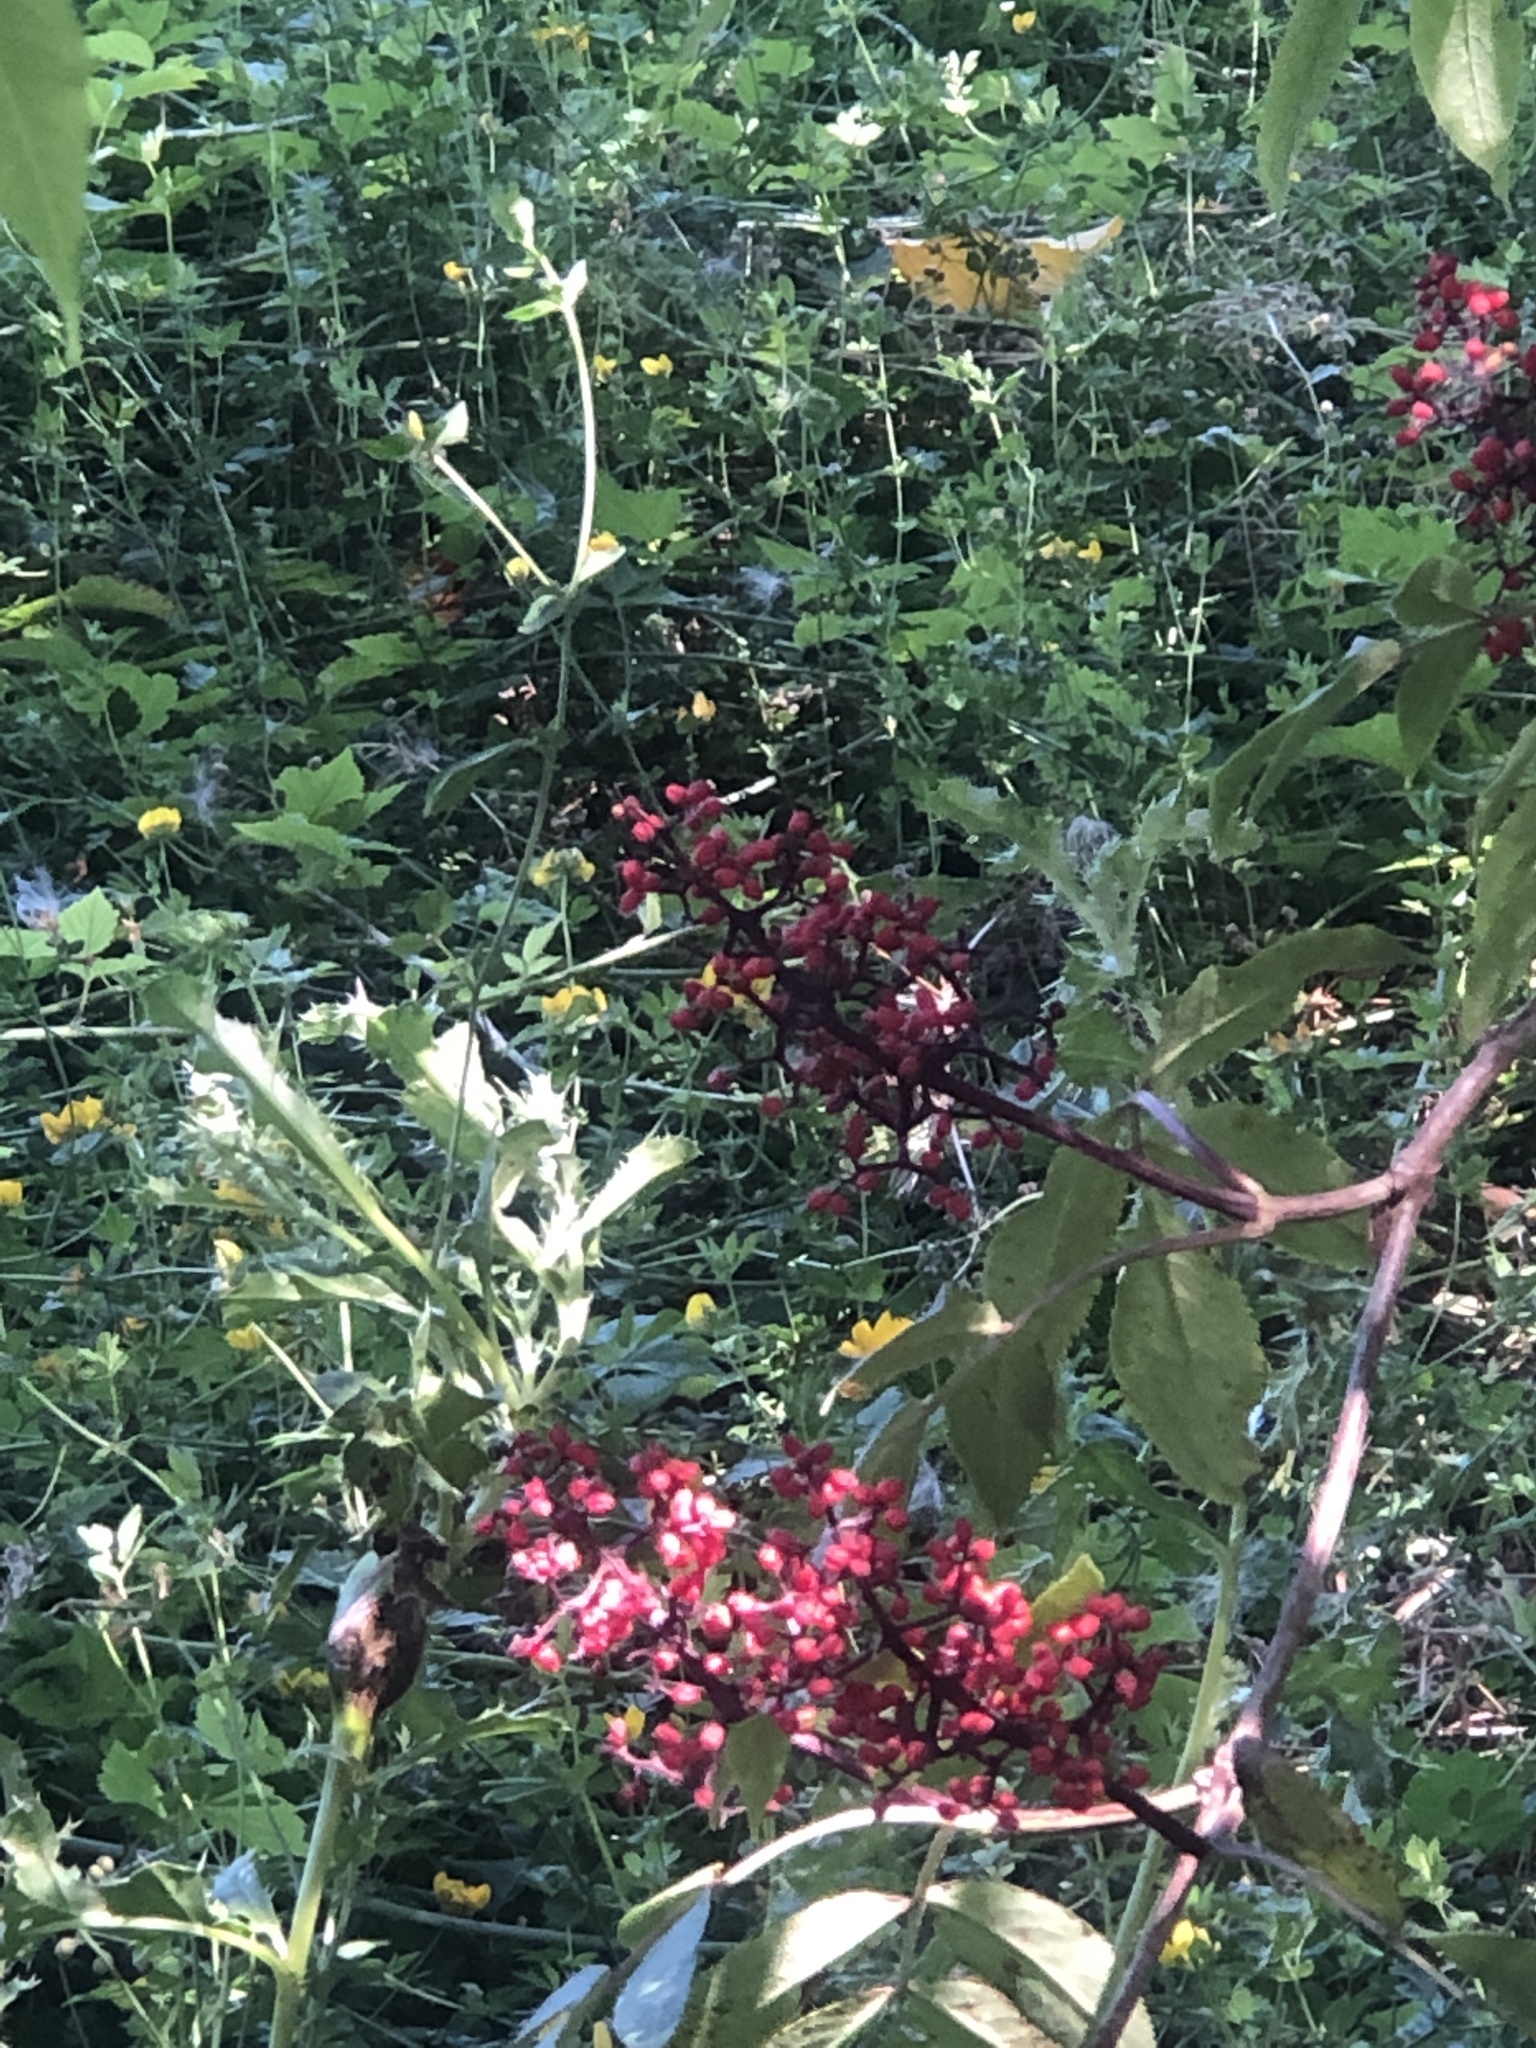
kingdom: Plantae
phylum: Tracheophyta
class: Magnoliopsida
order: Dipsacales
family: Viburnaceae
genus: Sambucus
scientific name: Sambucus racemosa
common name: Red-berried elder
